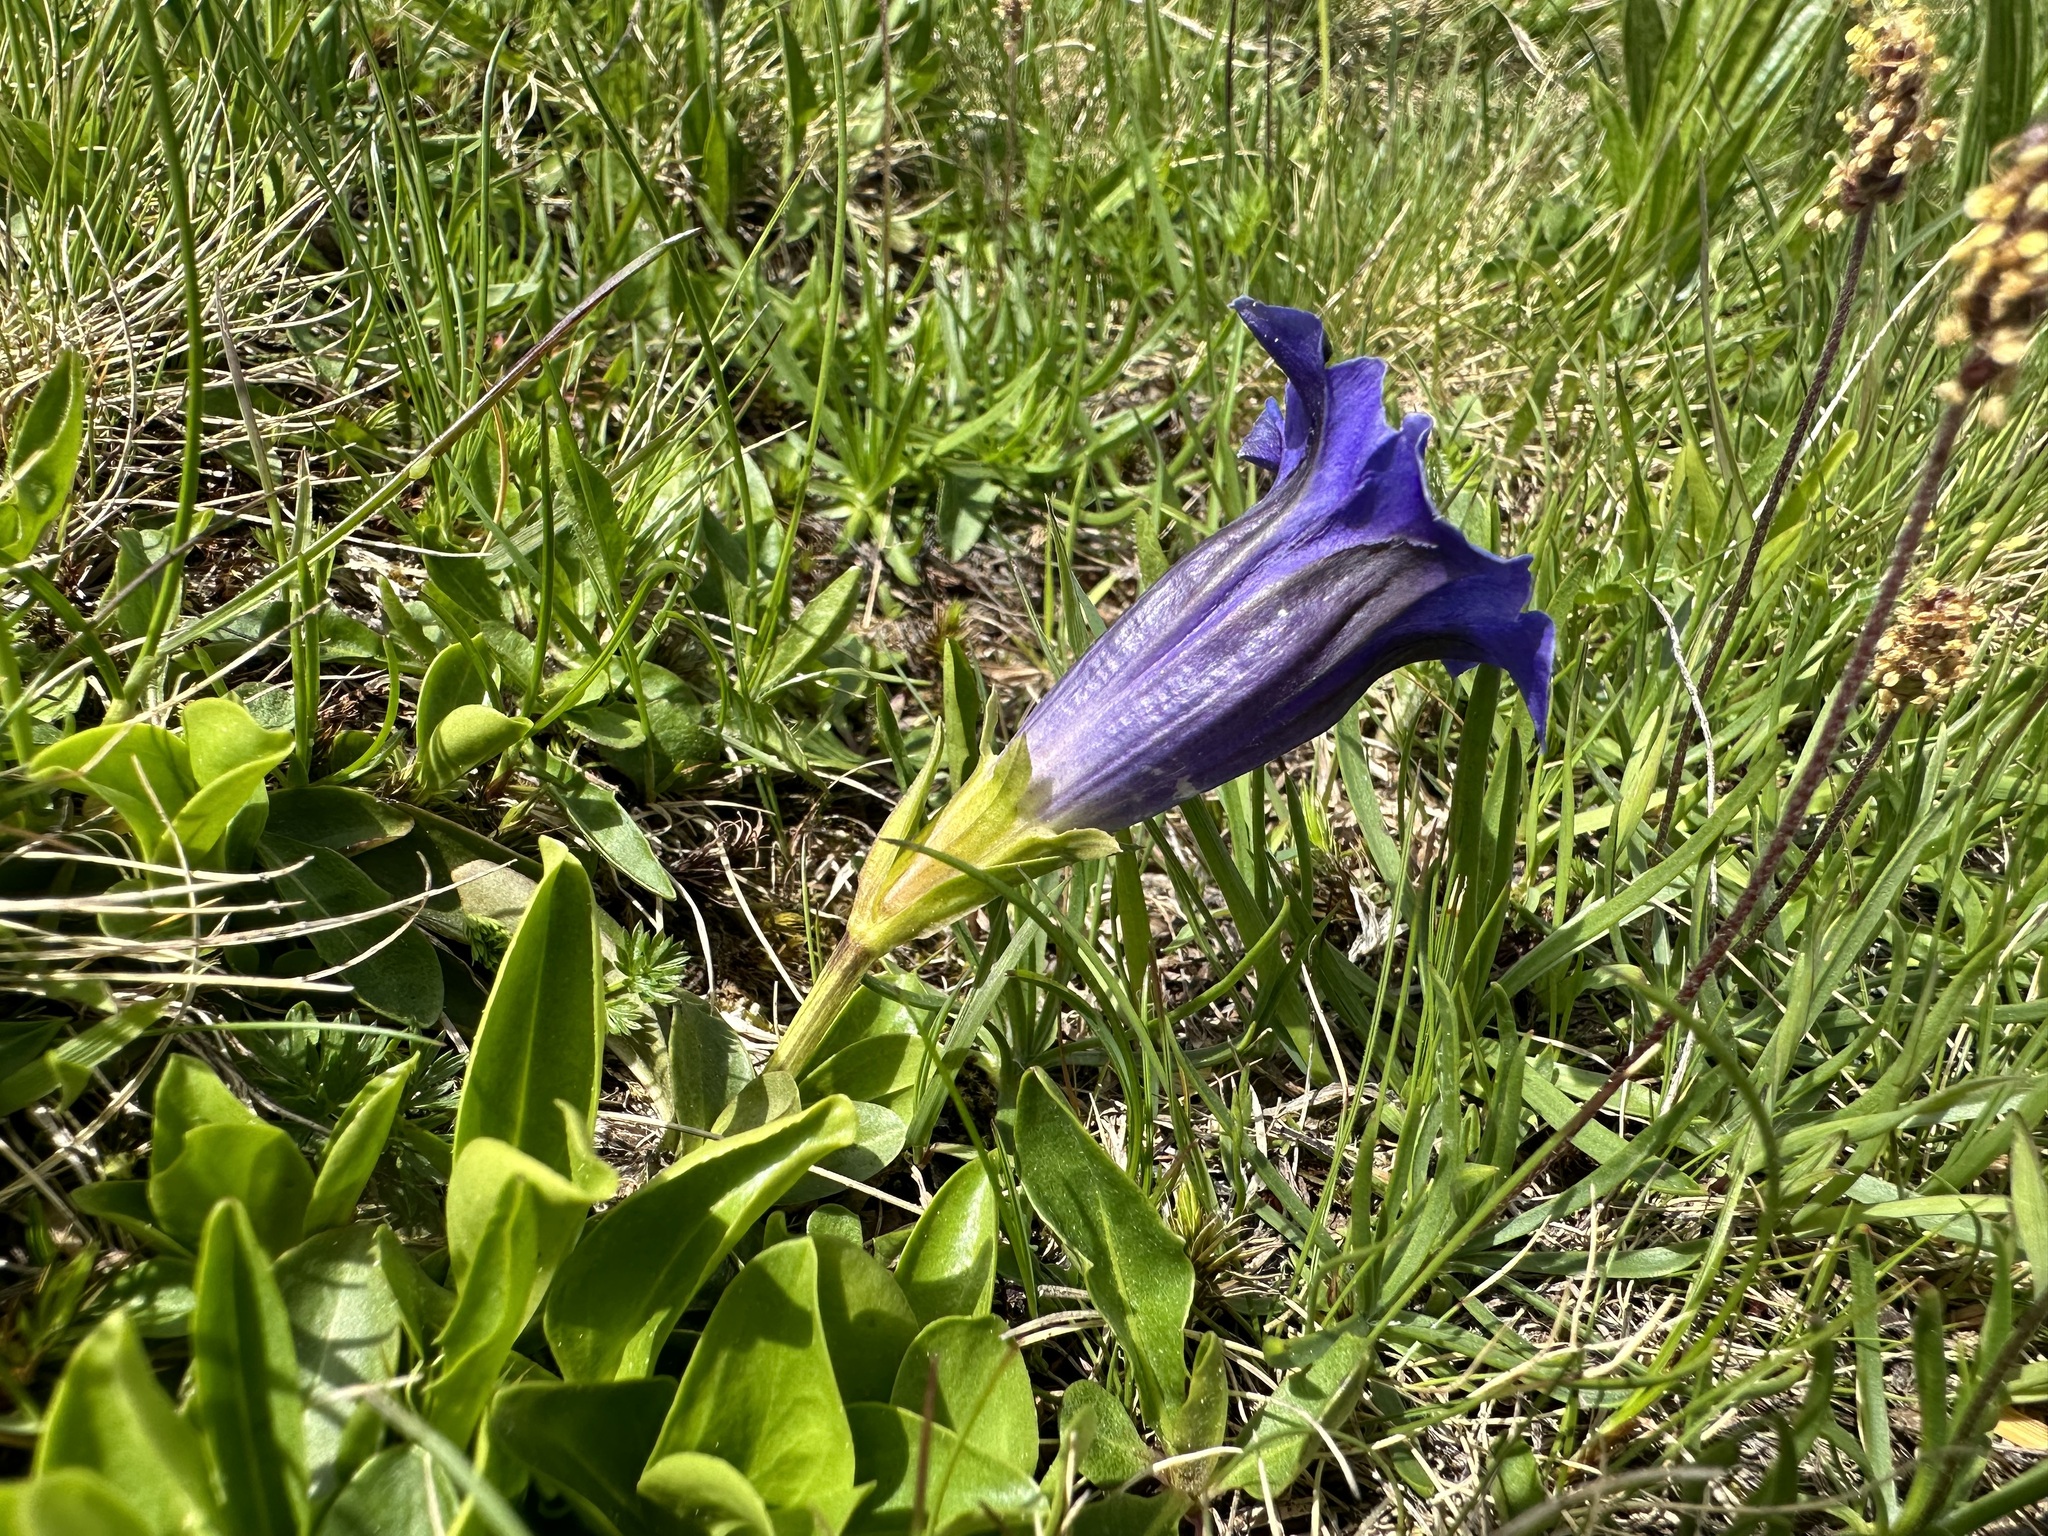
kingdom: Plantae
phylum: Tracheophyta
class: Magnoliopsida
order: Gentianales
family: Gentianaceae
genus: Gentiana
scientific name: Gentiana acaulis
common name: Trumpet gentian
